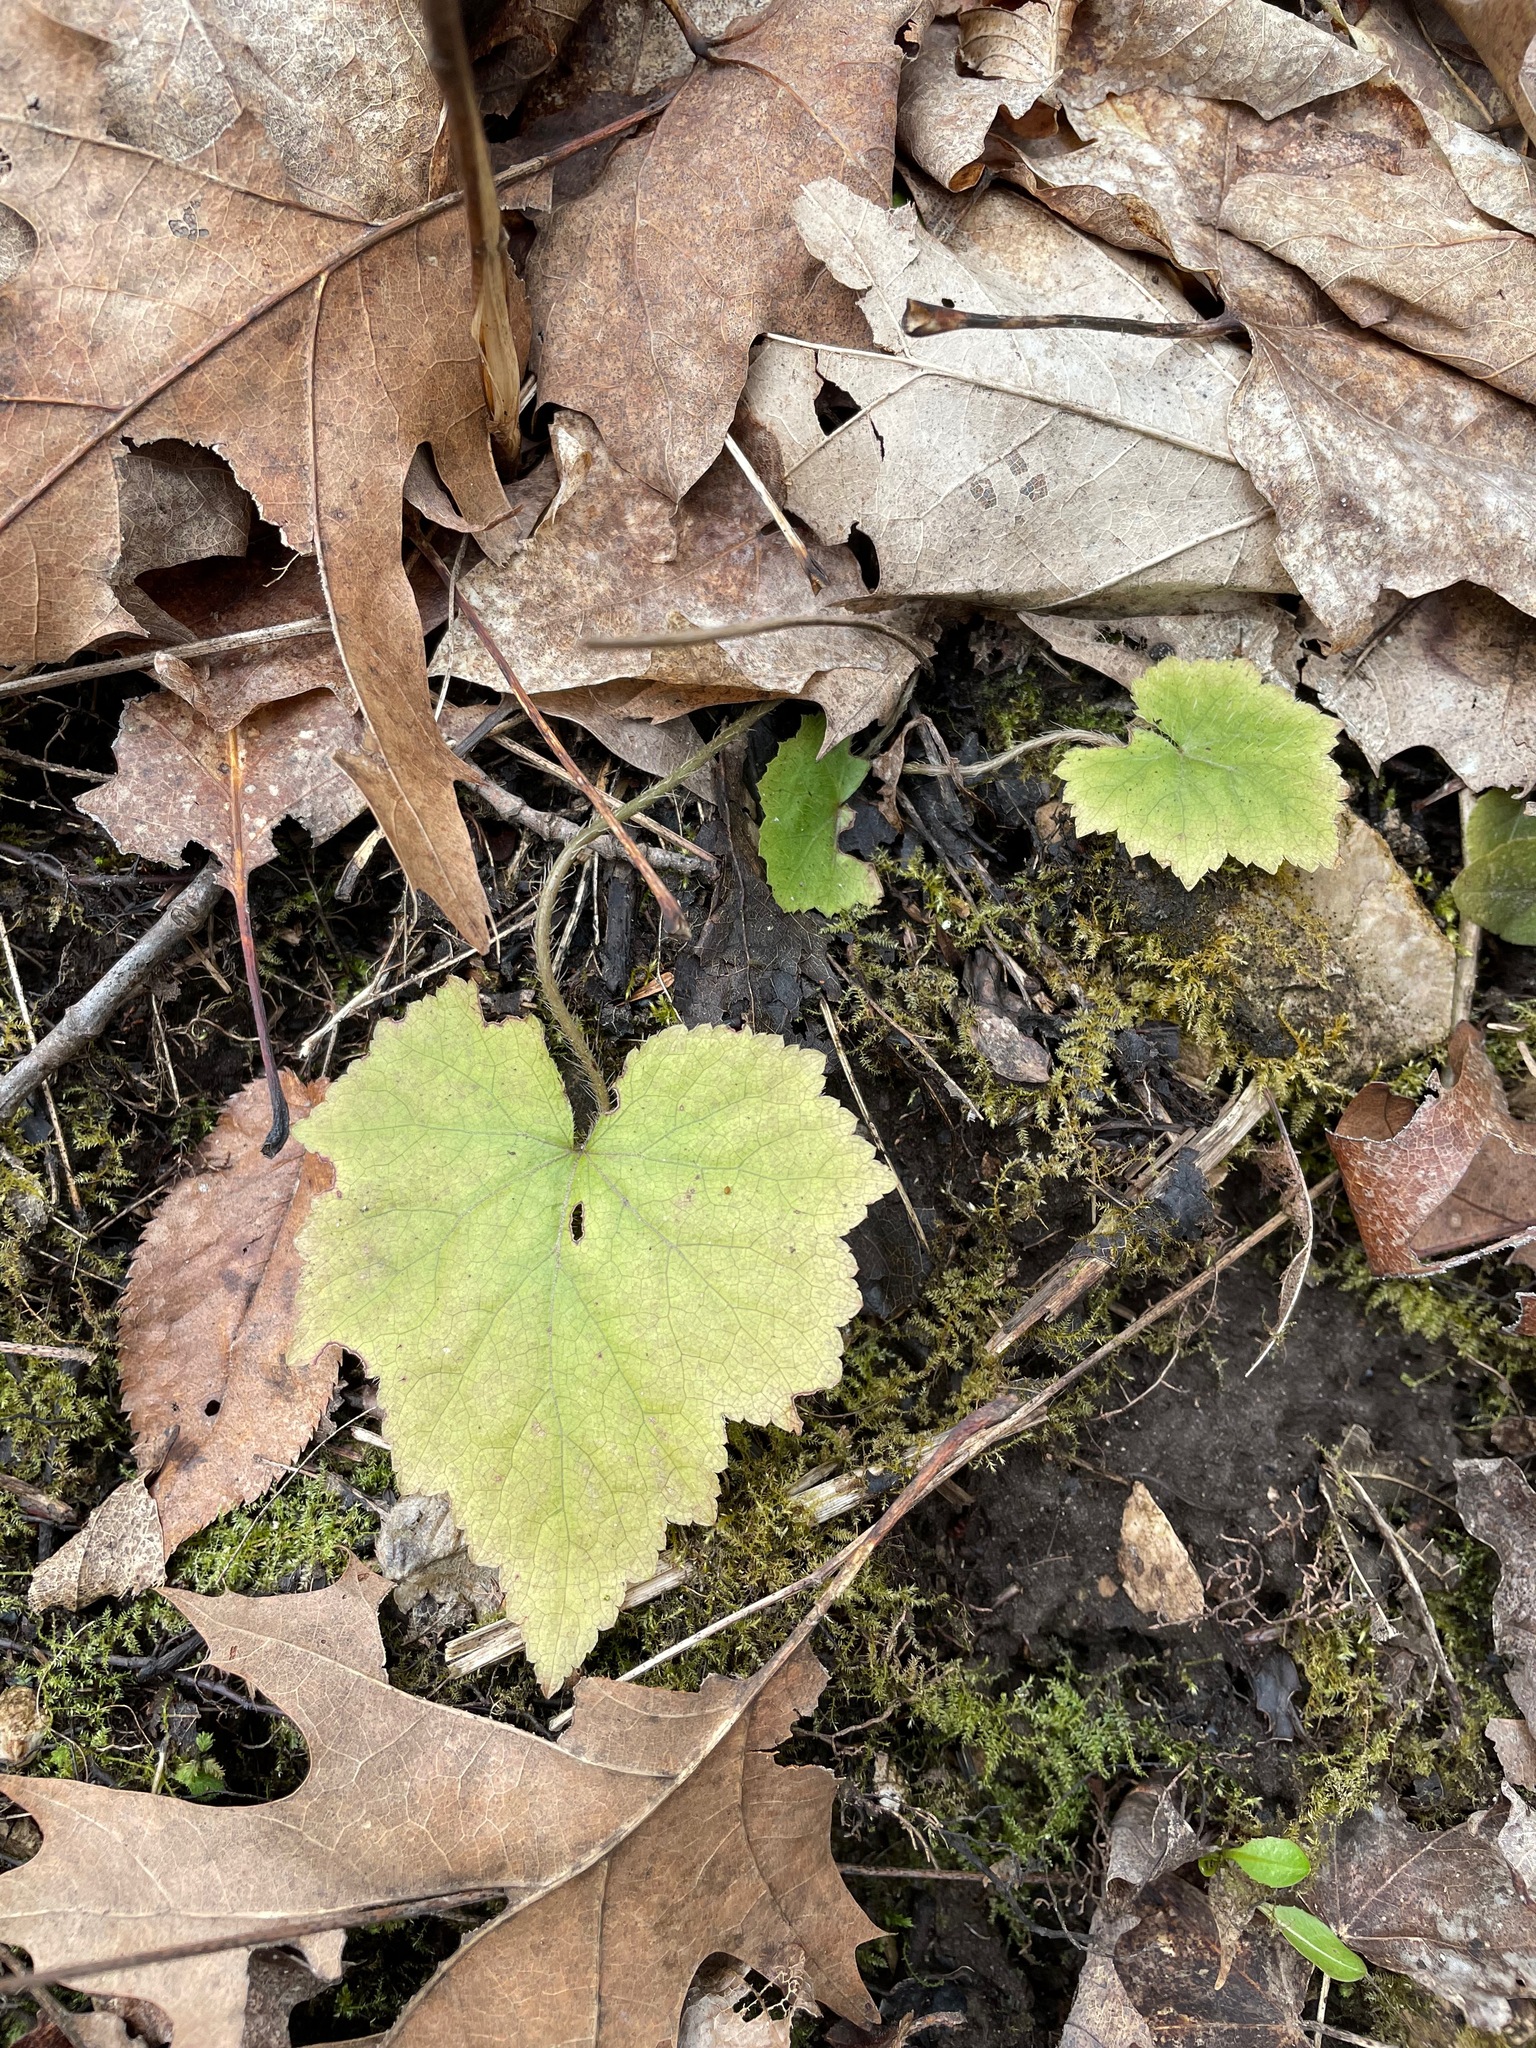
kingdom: Plantae
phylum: Tracheophyta
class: Magnoliopsida
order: Saxifragales
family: Saxifragaceae
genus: Mitella
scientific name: Mitella diphylla
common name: Coolwort
